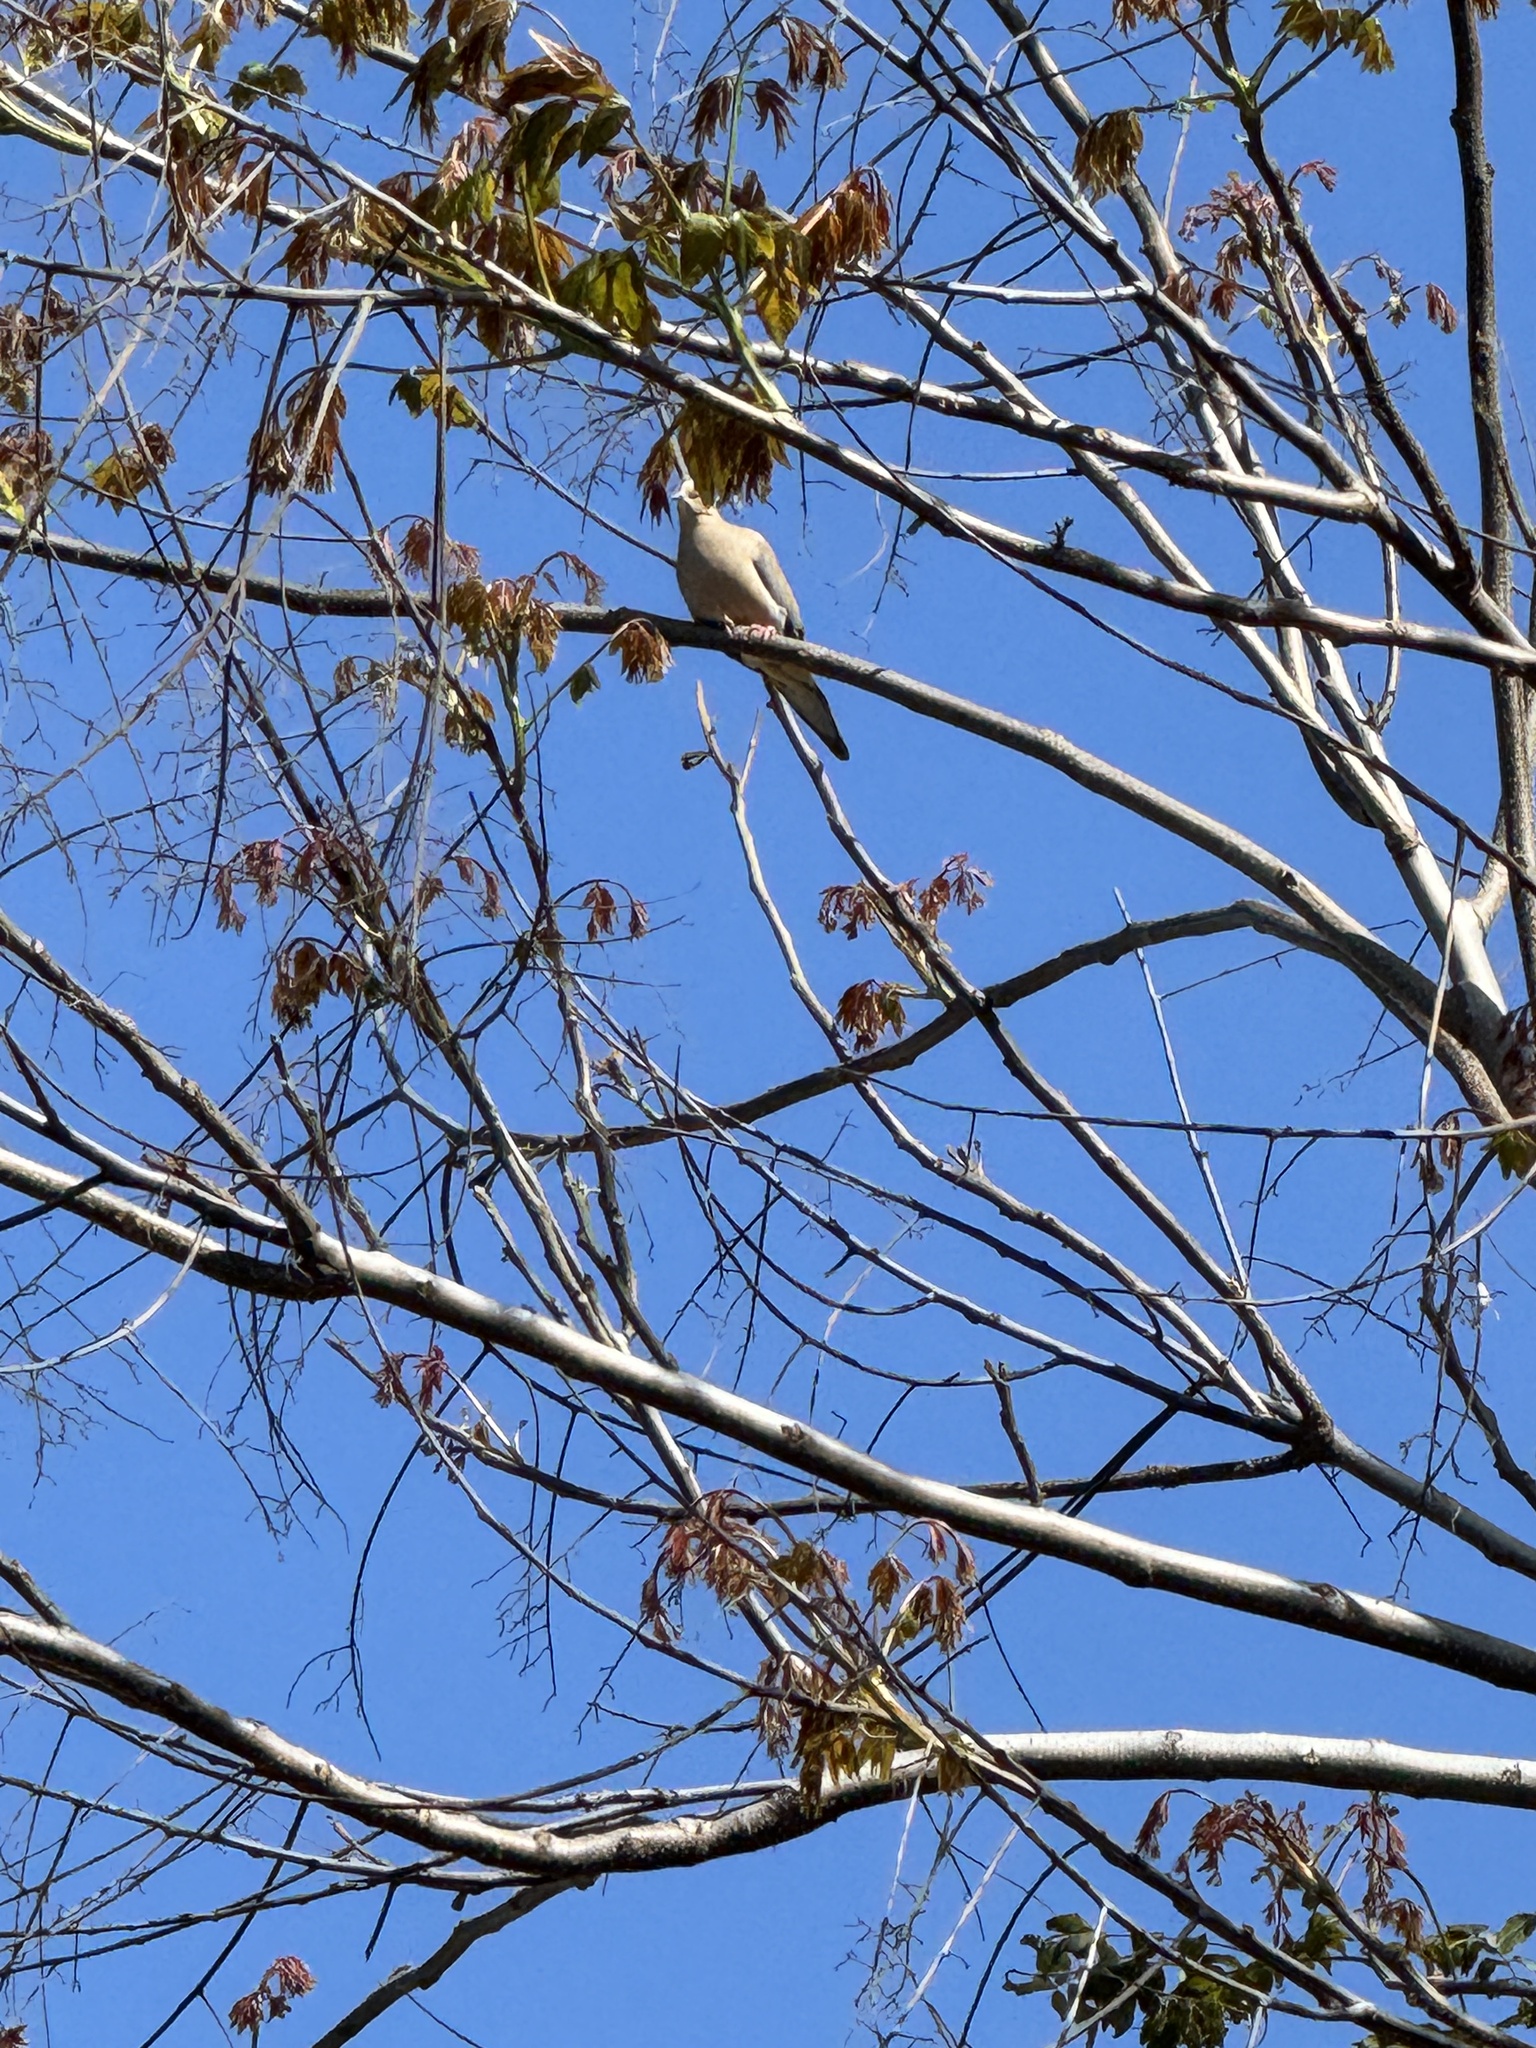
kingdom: Animalia
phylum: Chordata
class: Aves
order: Columbiformes
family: Columbidae
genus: Zenaida
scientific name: Zenaida macroura
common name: Mourning dove
